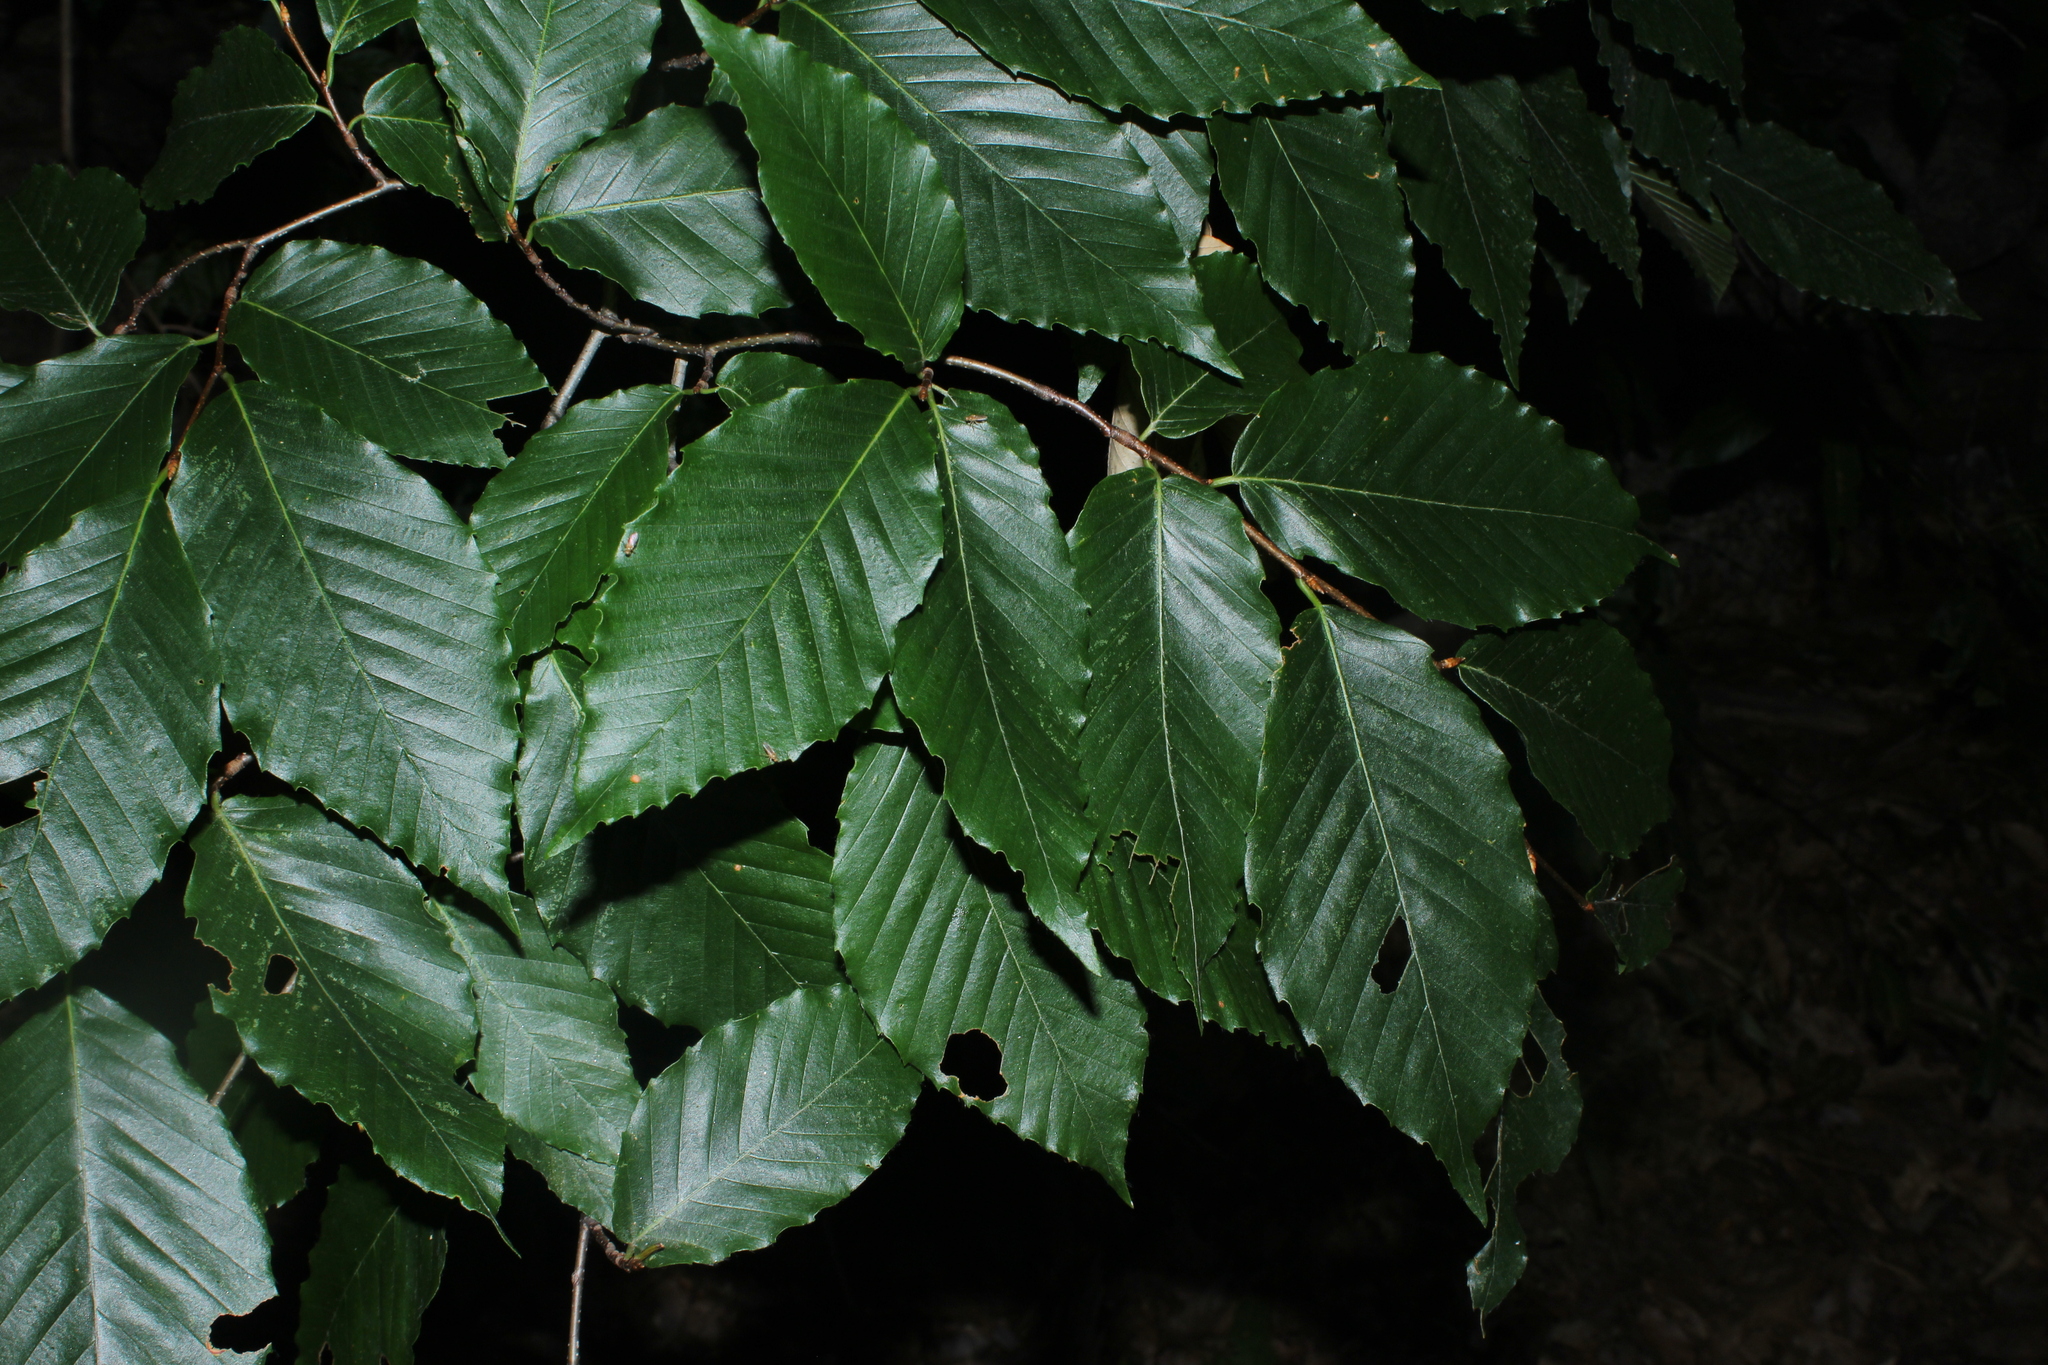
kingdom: Plantae
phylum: Tracheophyta
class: Magnoliopsida
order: Fagales
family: Fagaceae
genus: Fagus
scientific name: Fagus grandifolia
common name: American beech
